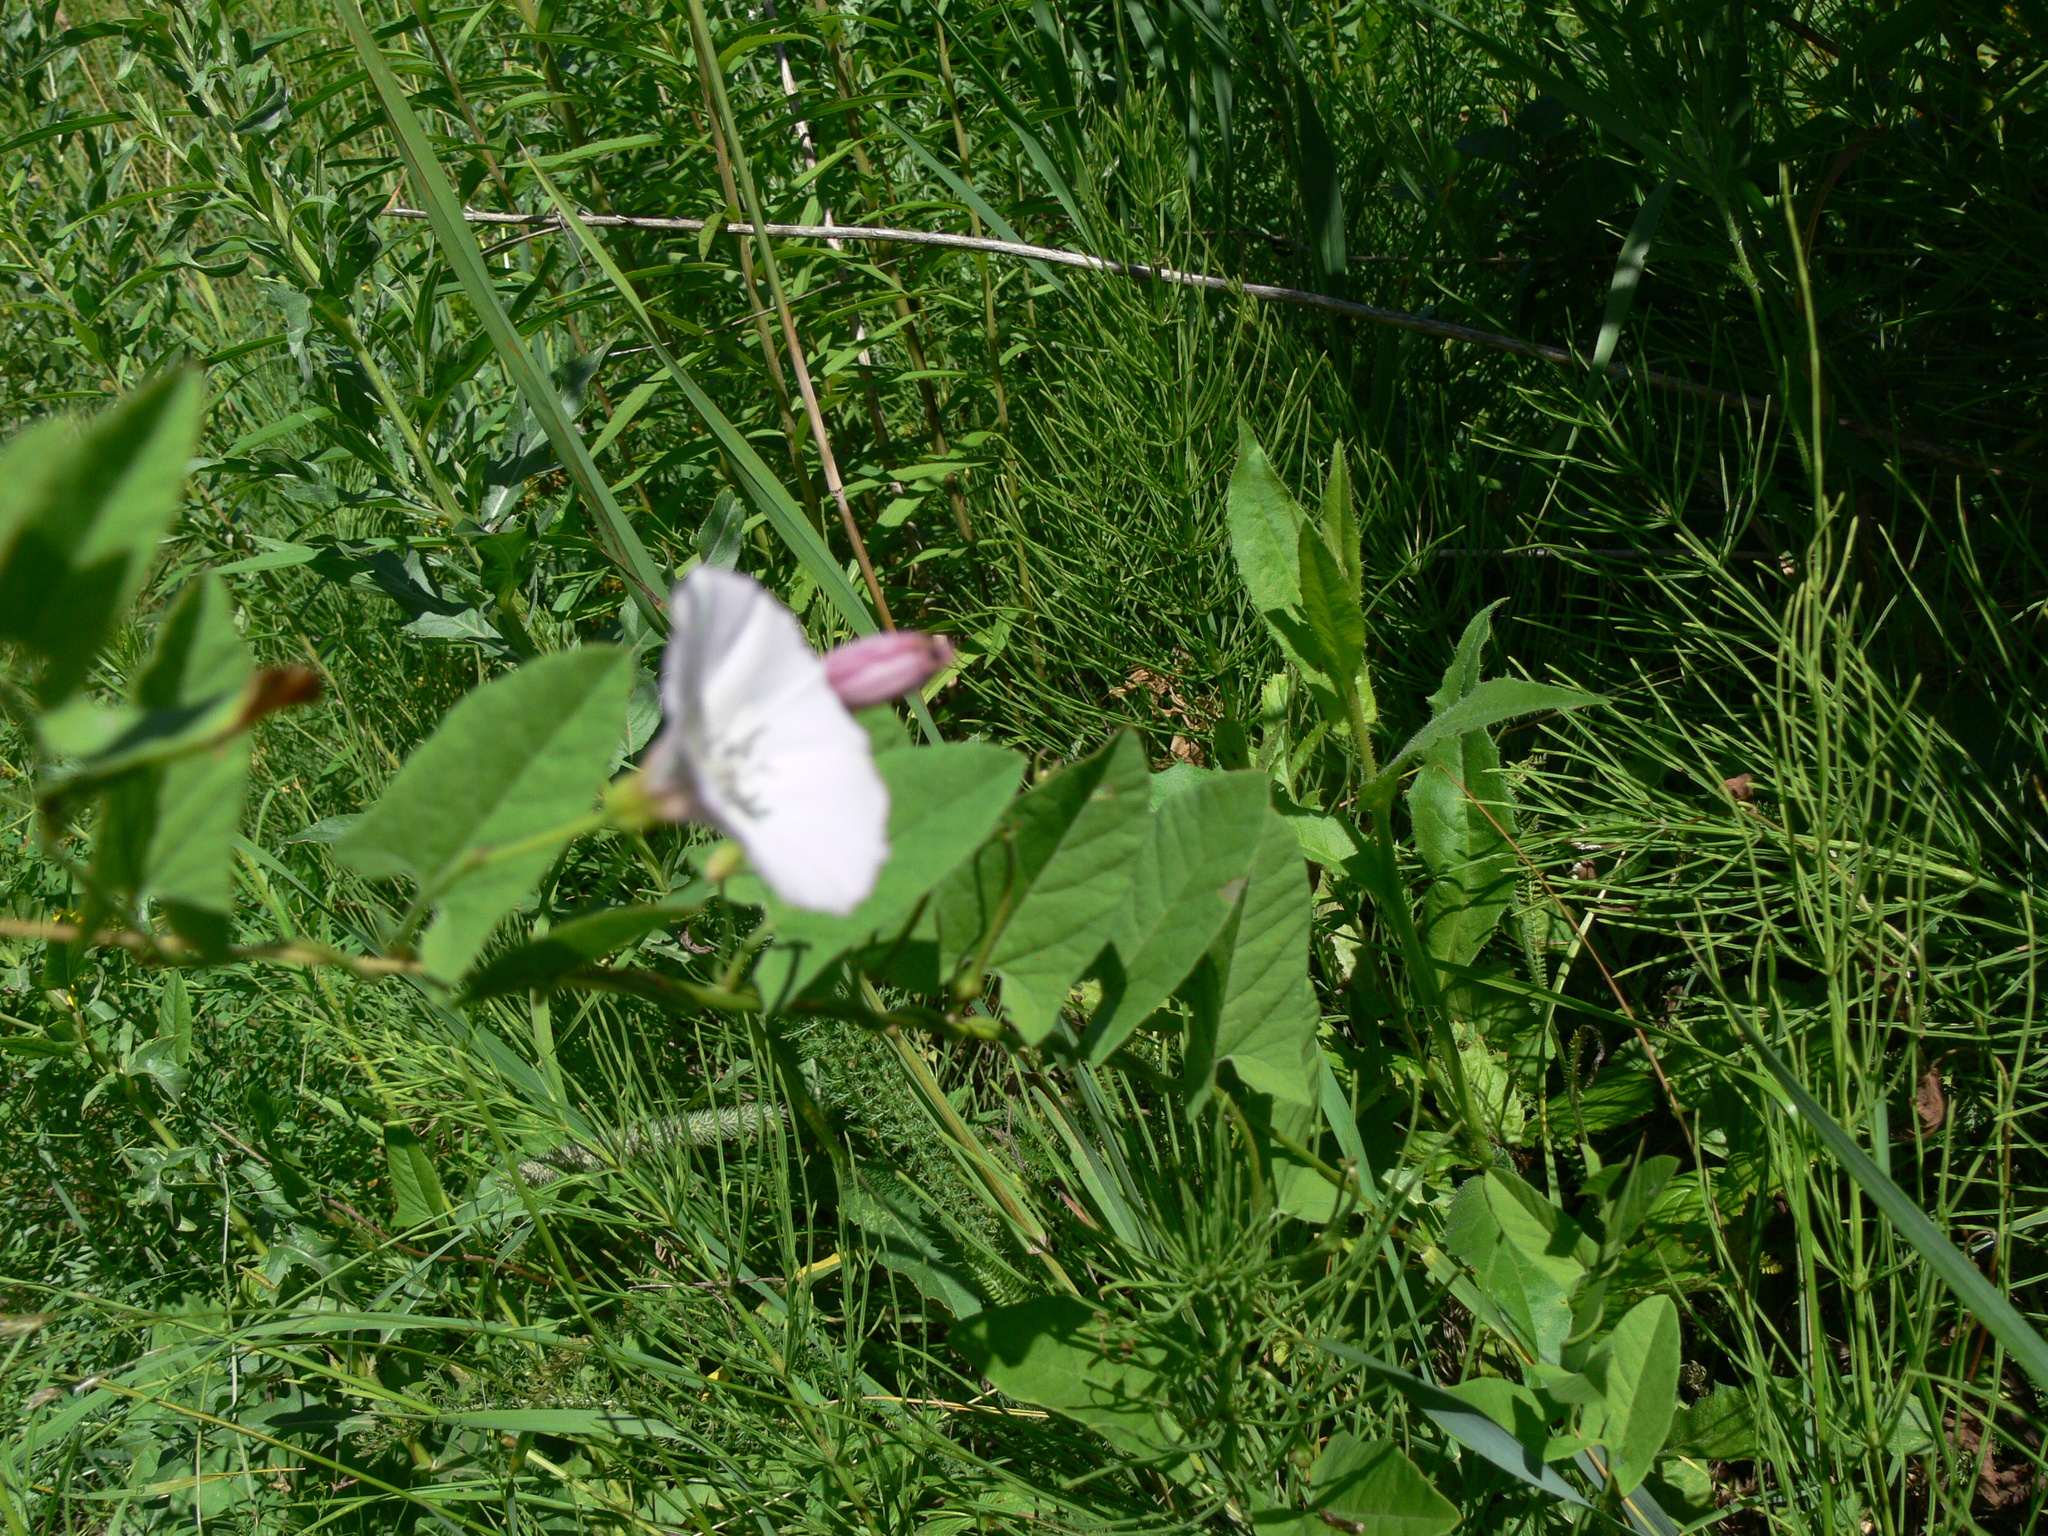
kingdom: Plantae
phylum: Tracheophyta
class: Magnoliopsida
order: Solanales
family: Convolvulaceae
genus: Convolvulus
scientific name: Convolvulus arvensis
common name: Field bindweed
